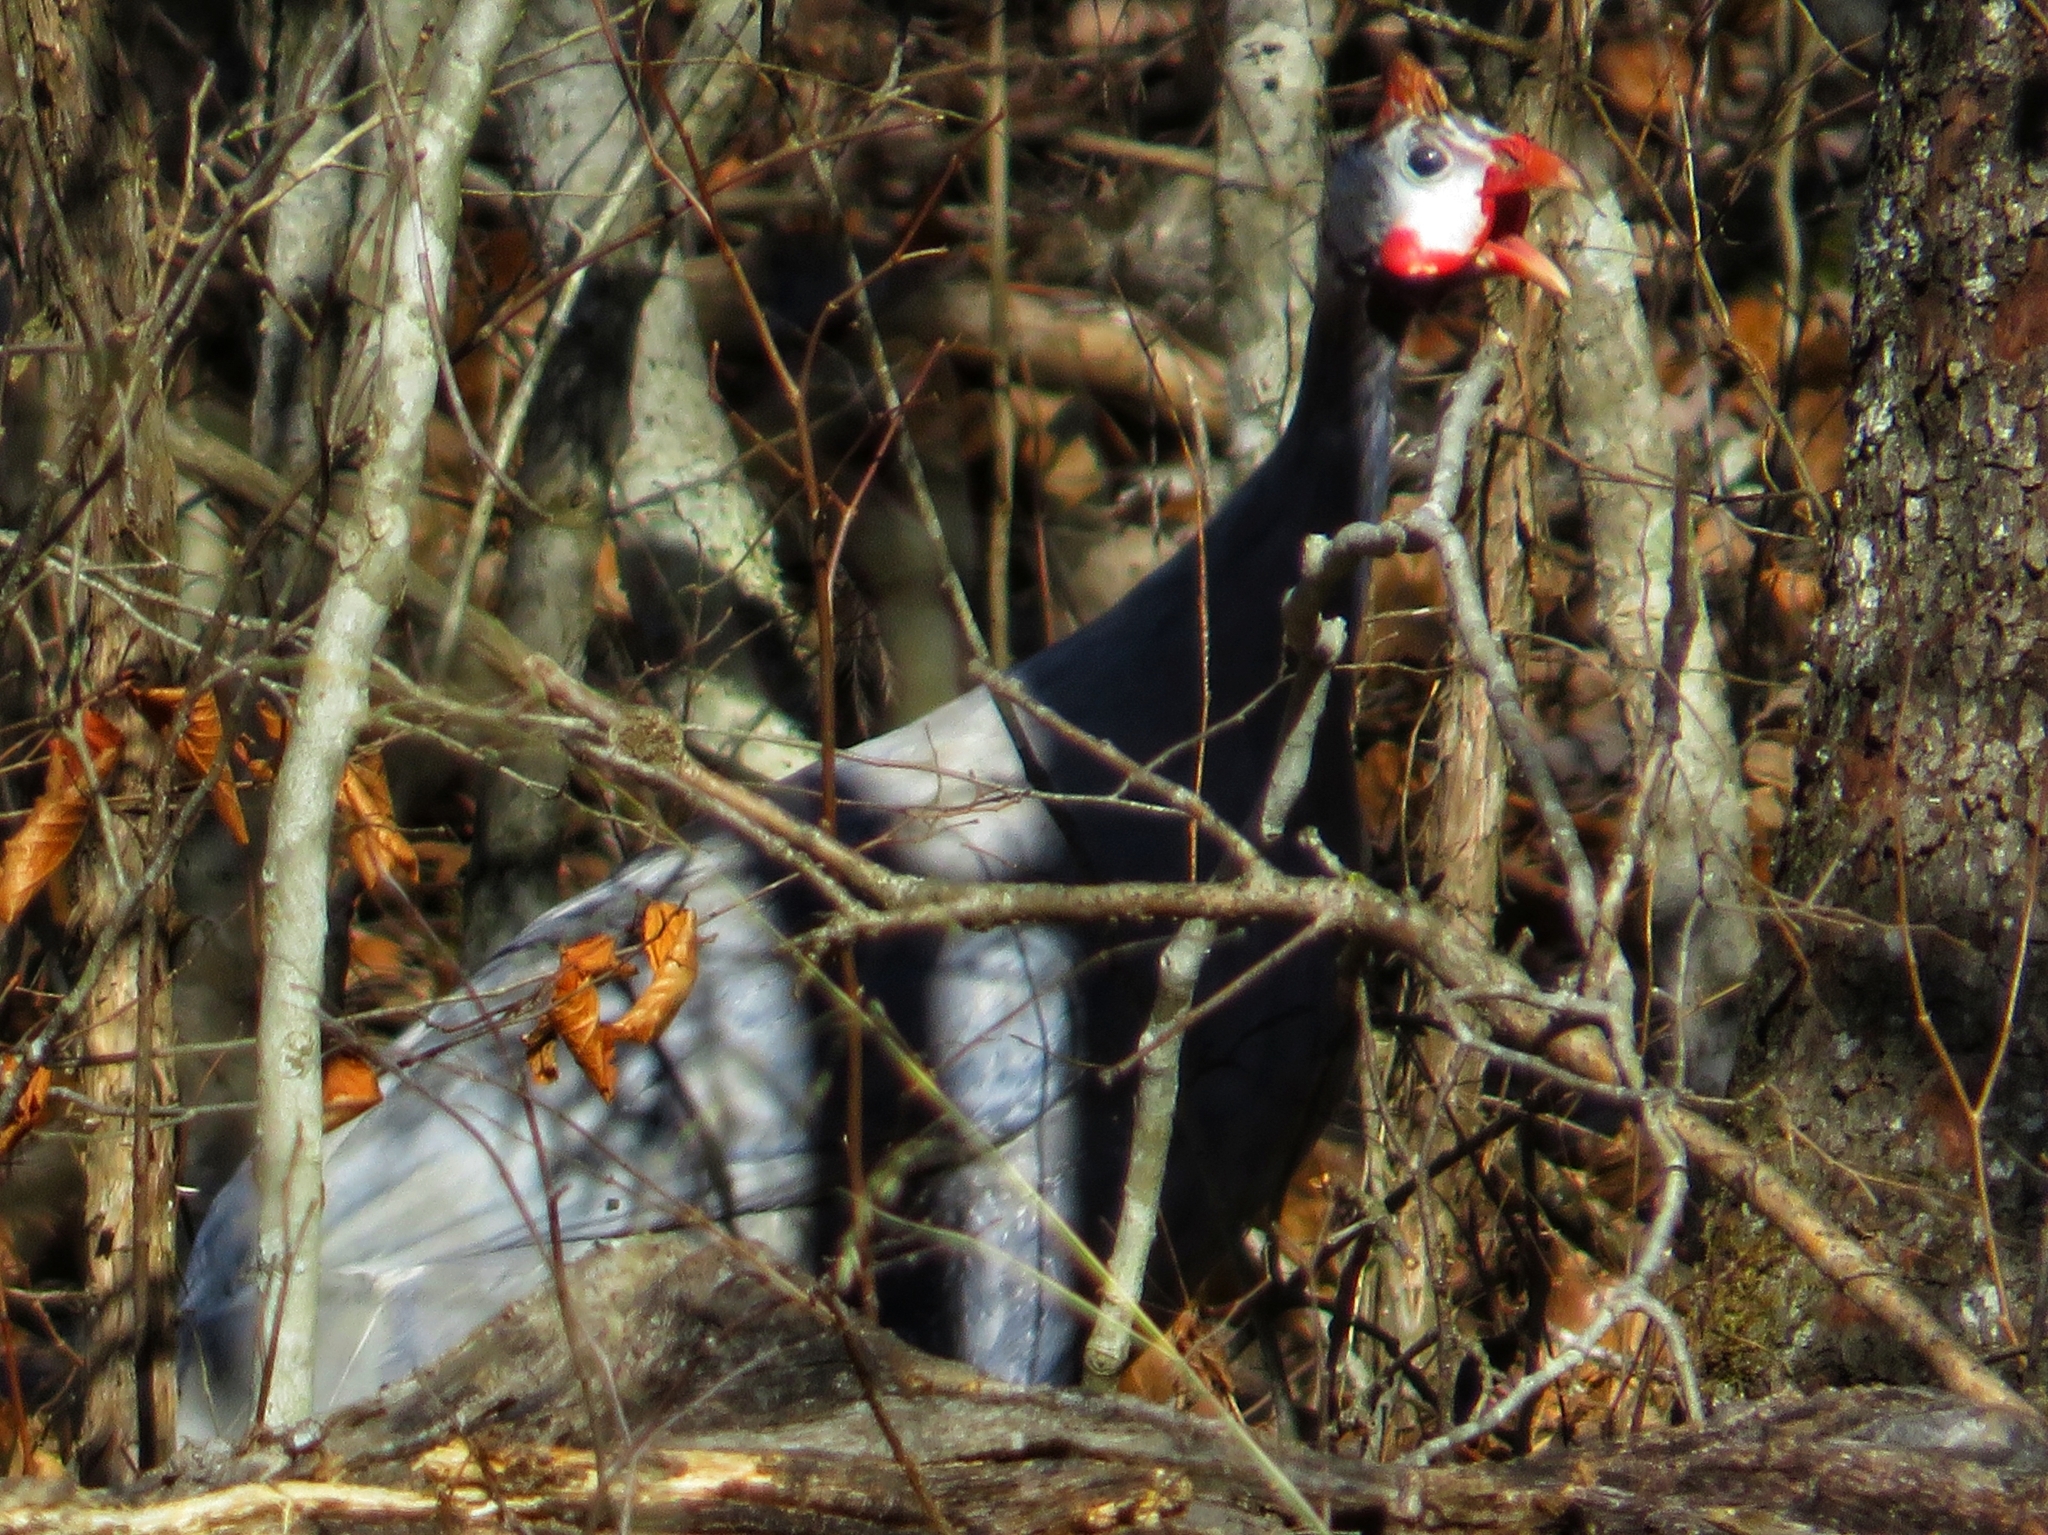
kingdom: Animalia
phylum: Chordata
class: Aves
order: Galliformes
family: Numididae
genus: Numida
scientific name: Numida meleagris
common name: Helmeted guineafowl
